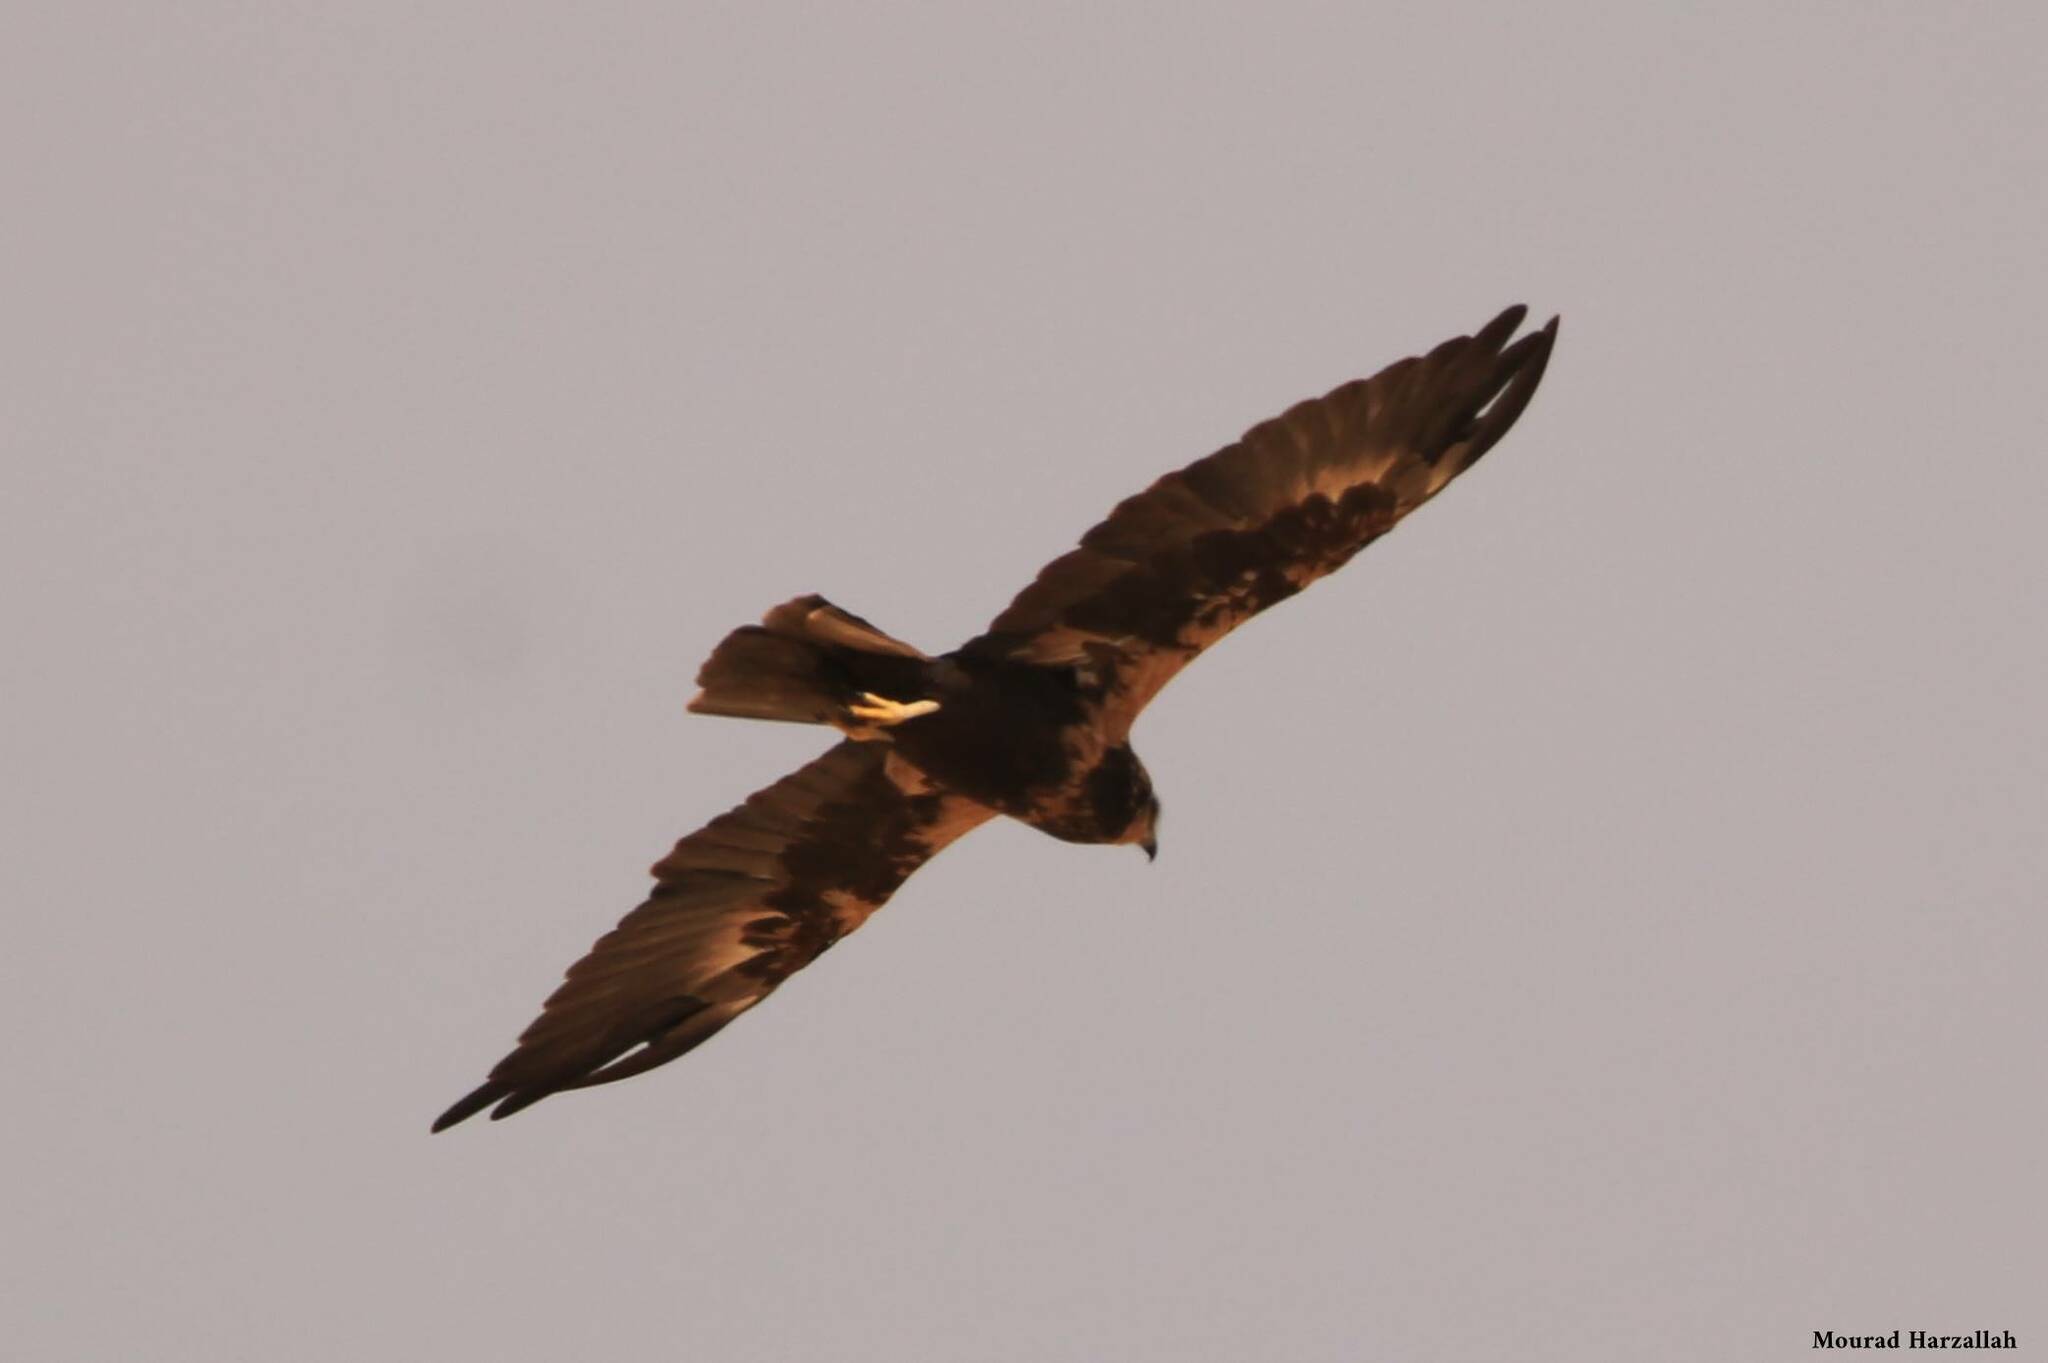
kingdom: Animalia
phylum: Chordata
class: Aves
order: Accipitriformes
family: Accipitridae
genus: Circus
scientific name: Circus aeruginosus
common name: Western marsh harrier
